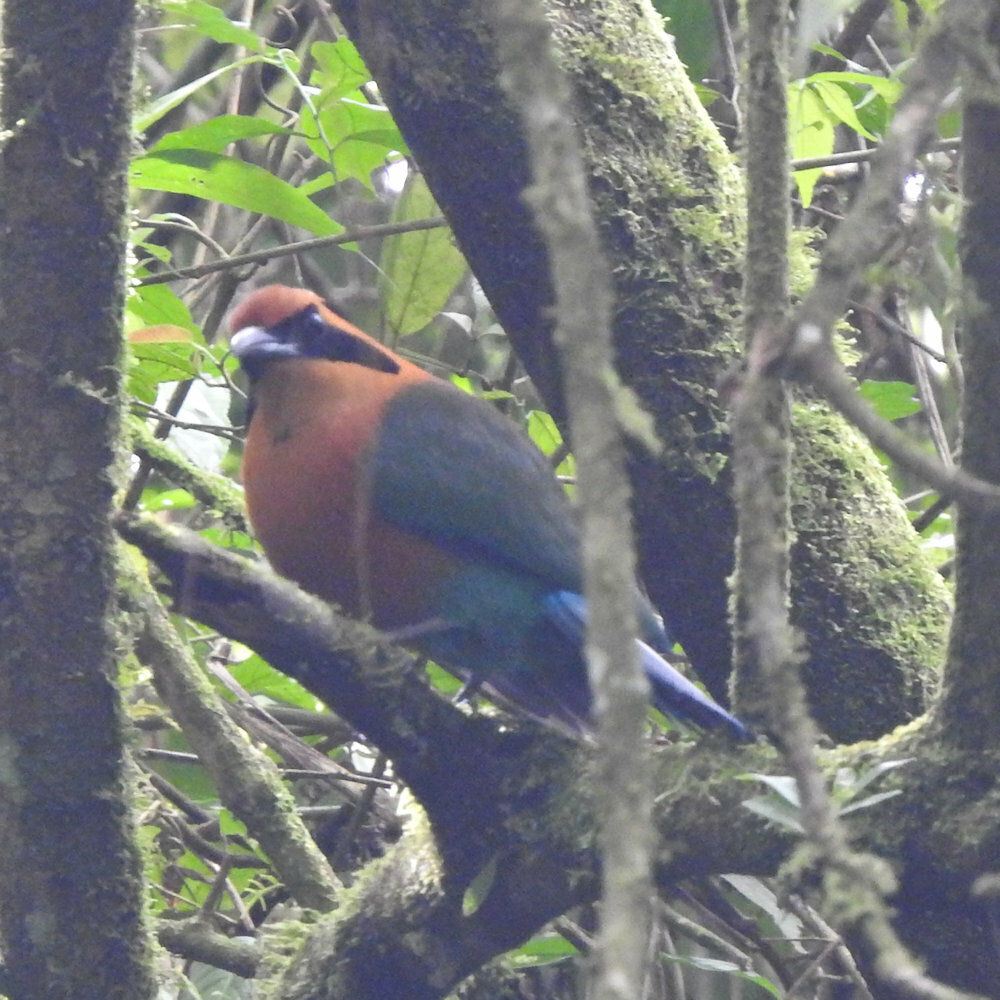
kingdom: Animalia
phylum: Chordata
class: Aves
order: Coraciiformes
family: Momotidae
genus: Baryphthengus
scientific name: Baryphthengus martii
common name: Rufous motmot
